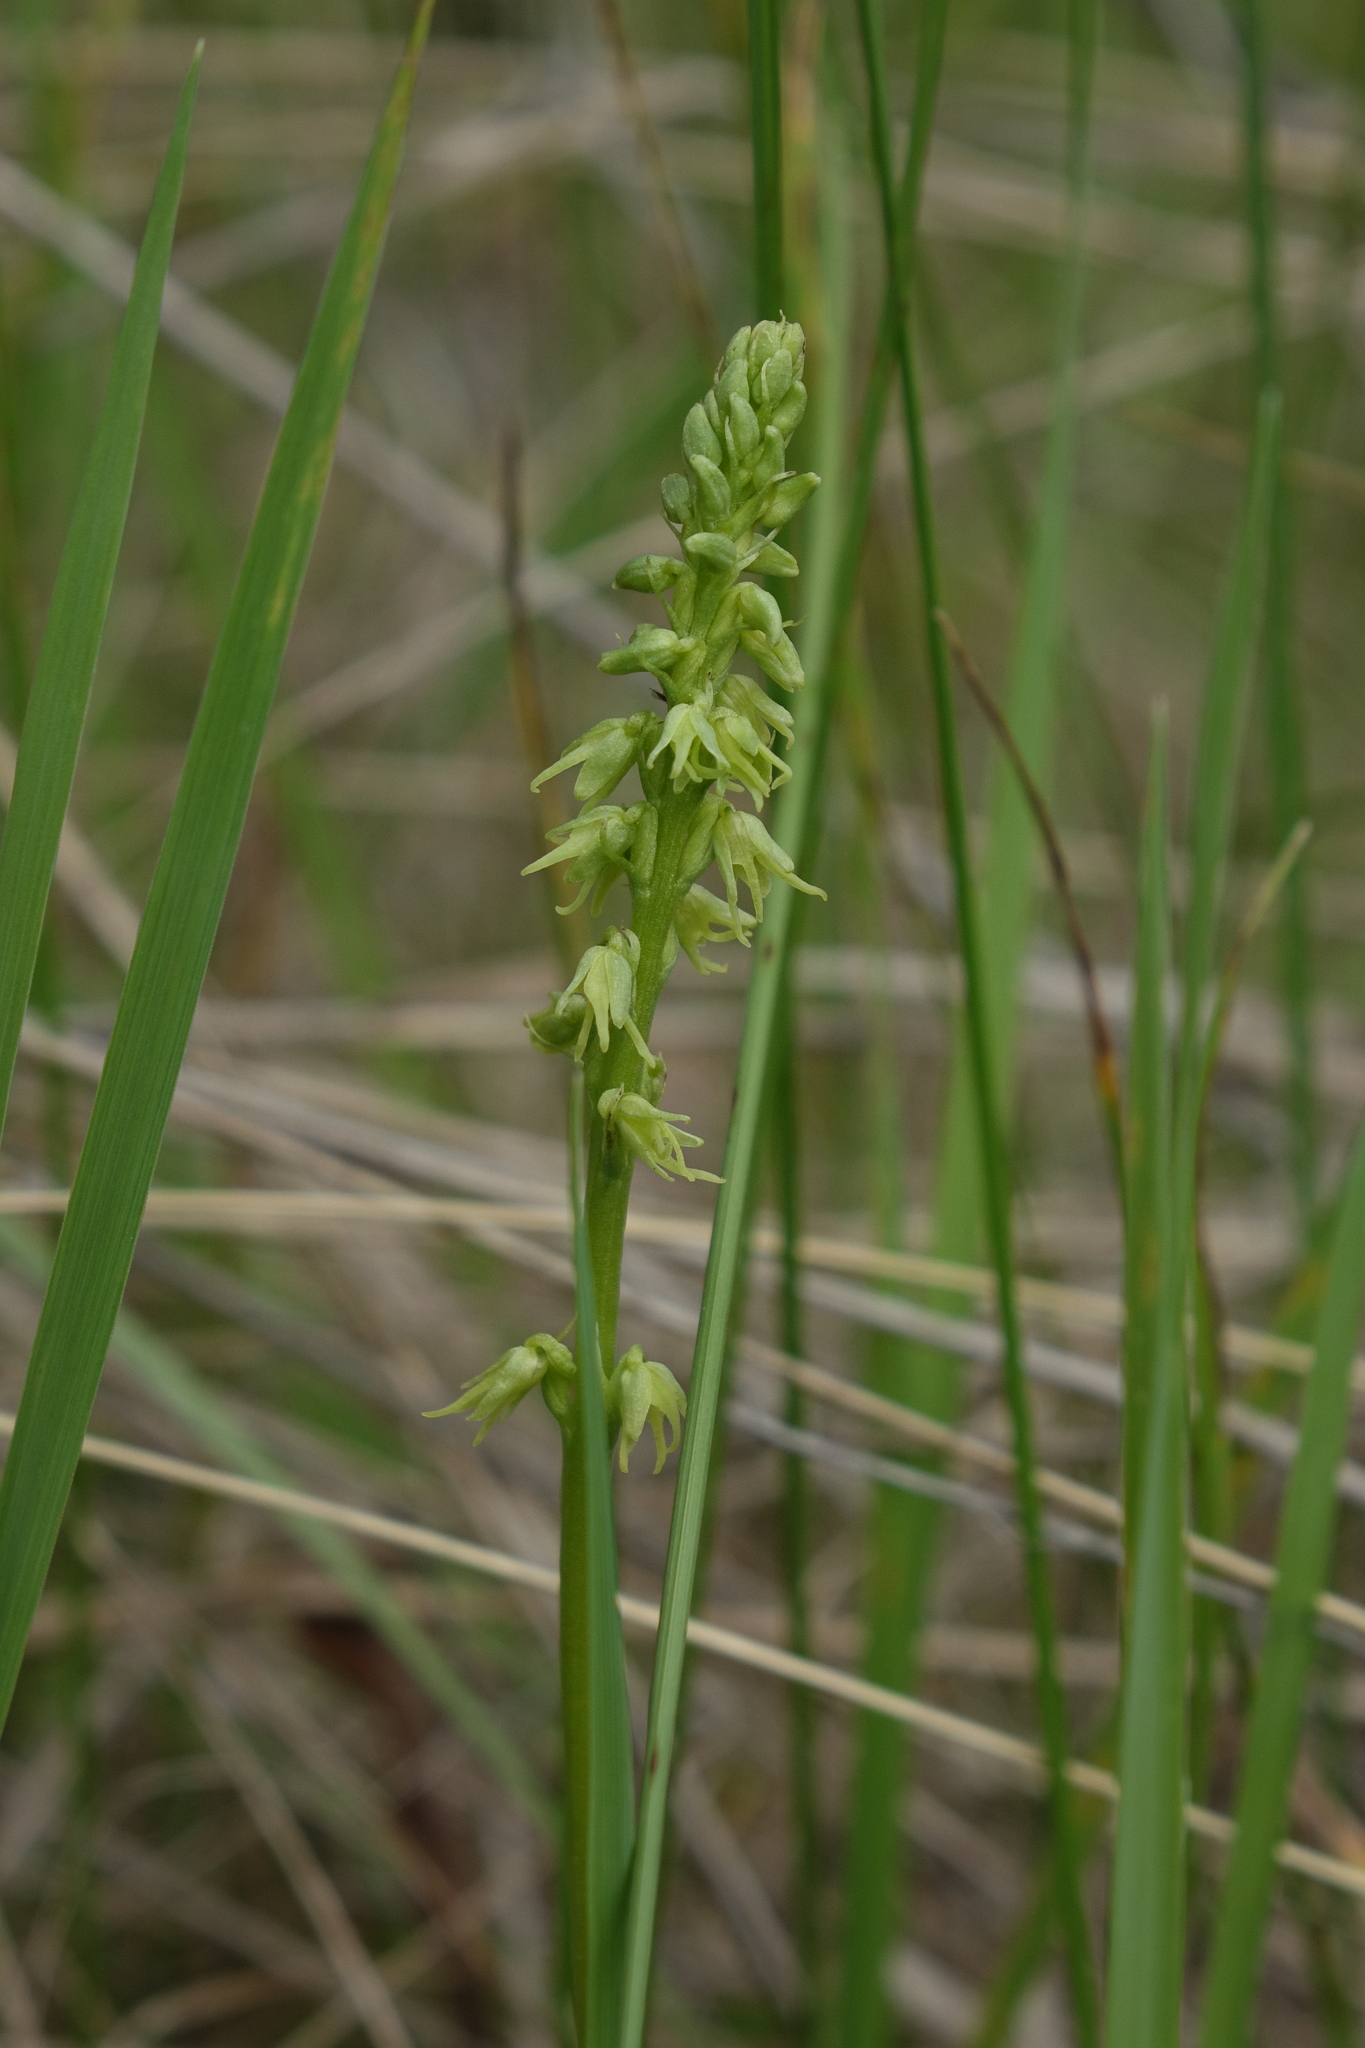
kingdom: Plantae
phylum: Tracheophyta
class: Liliopsida
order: Asparagales
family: Orchidaceae
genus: Herminium
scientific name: Herminium monorchis
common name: Musk orchid
